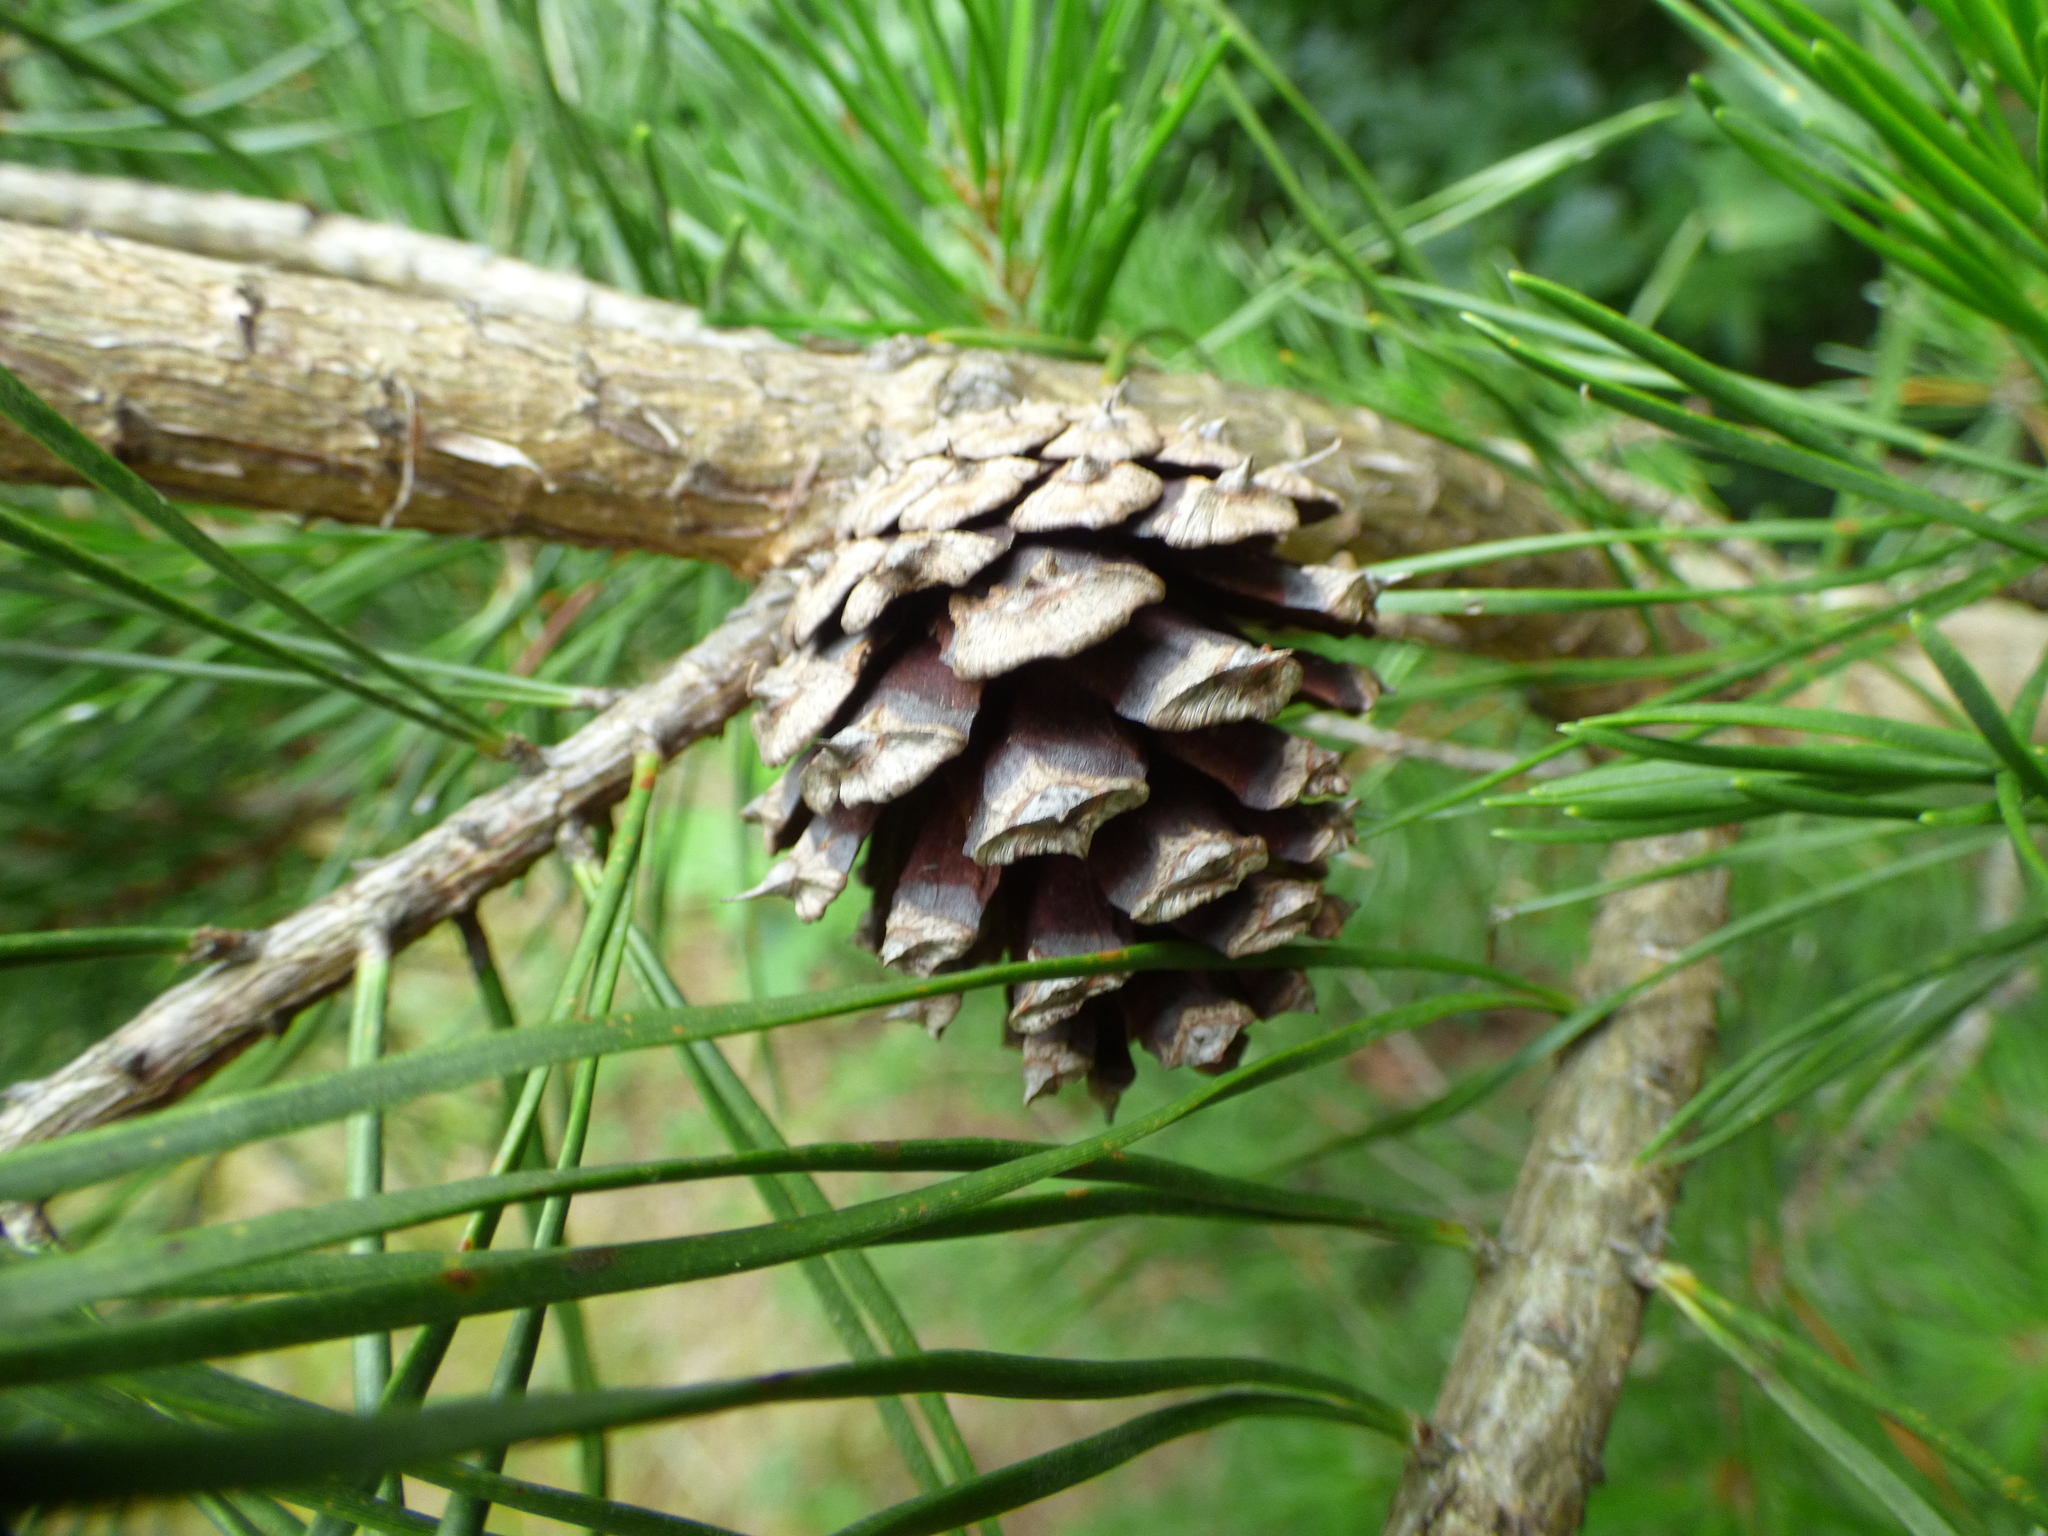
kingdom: Plantae
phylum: Tracheophyta
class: Pinopsida
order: Pinales
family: Pinaceae
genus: Pinus
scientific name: Pinus virginiana
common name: Scrub pine
